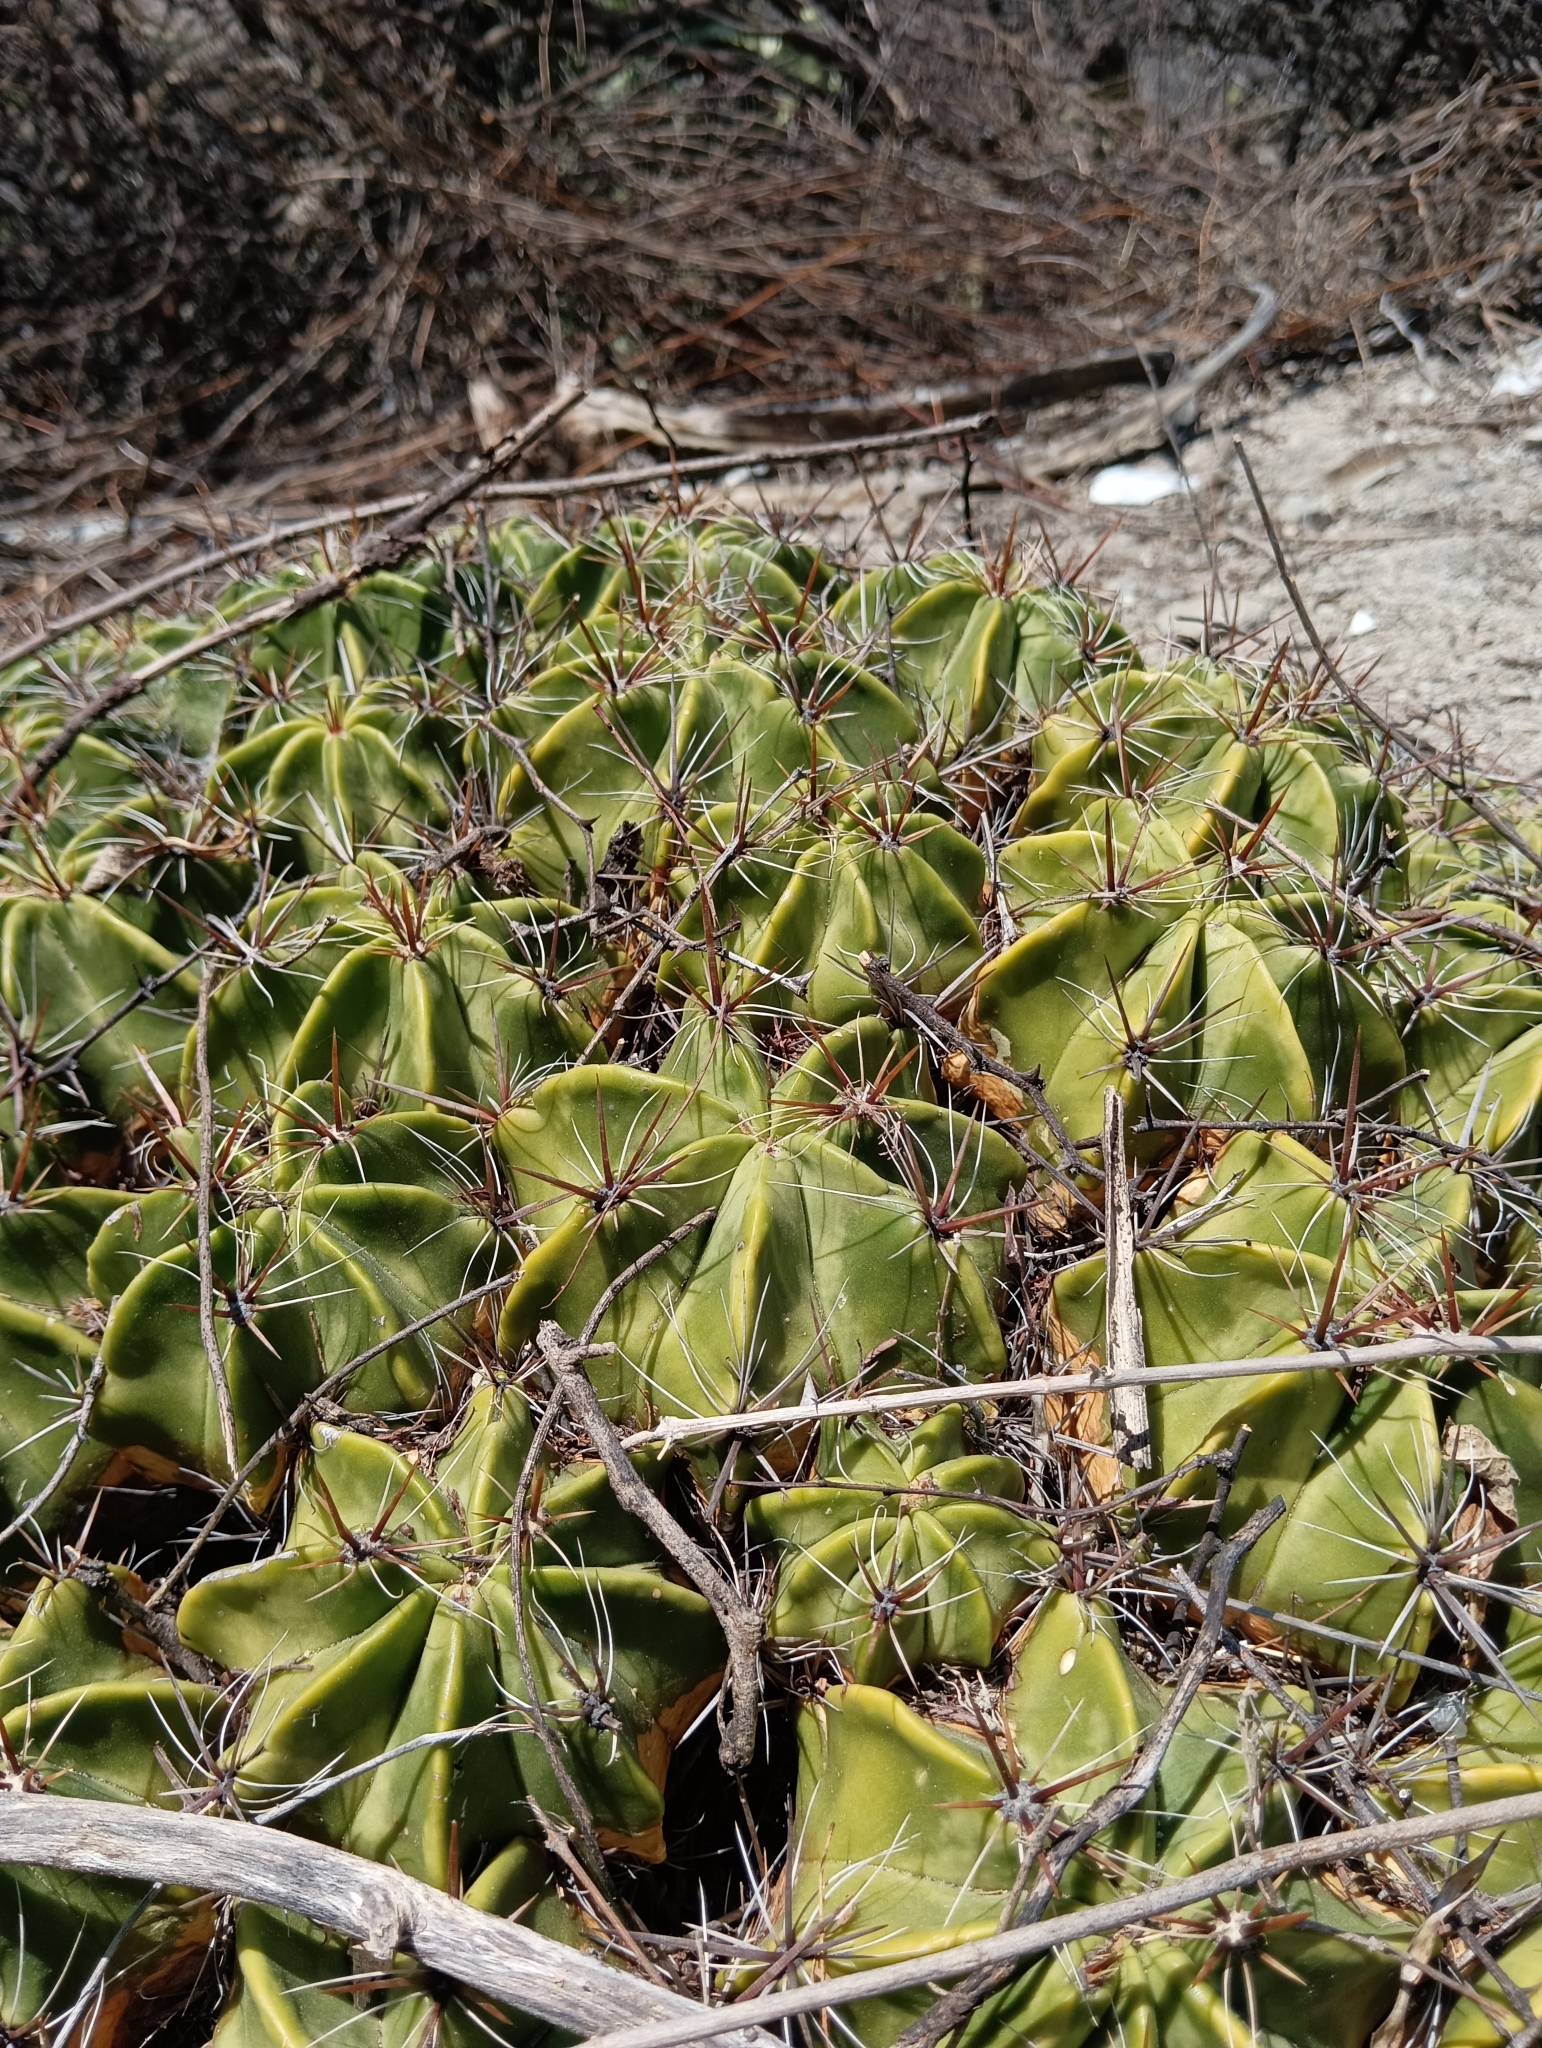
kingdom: Plantae
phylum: Tracheophyta
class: Magnoliopsida
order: Caryophyllales
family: Cactaceae
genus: Ferocactus
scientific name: Ferocactus robustus
